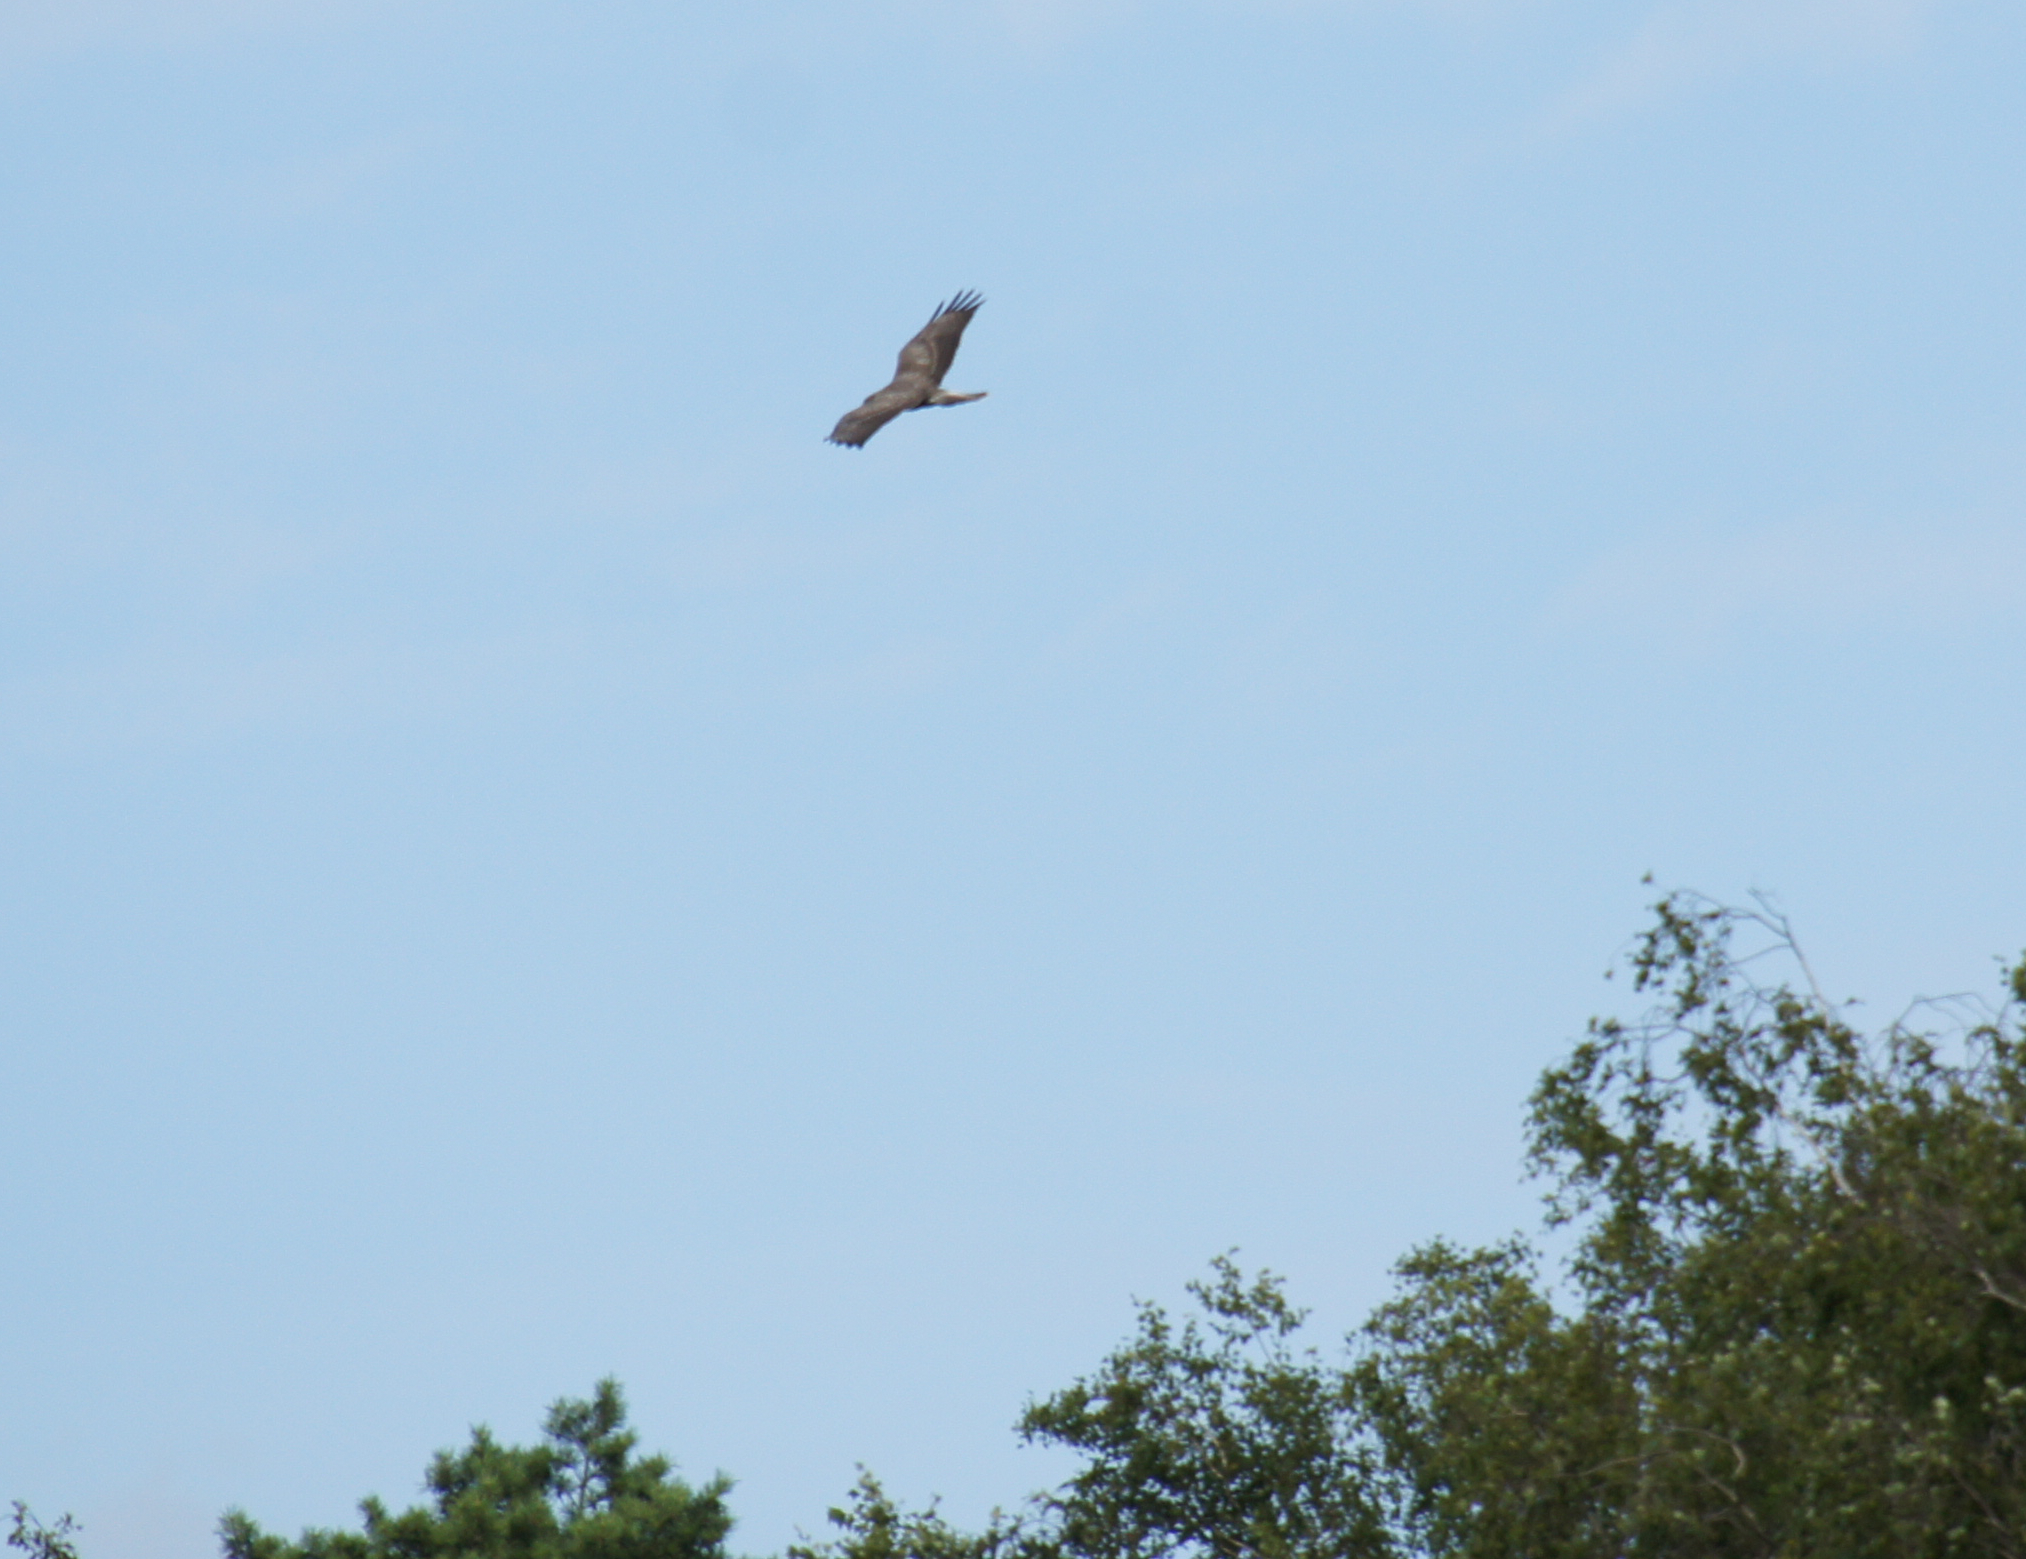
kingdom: Animalia
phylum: Chordata
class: Aves
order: Accipitriformes
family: Accipitridae
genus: Buteo
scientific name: Buteo buteo
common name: Common buzzard
